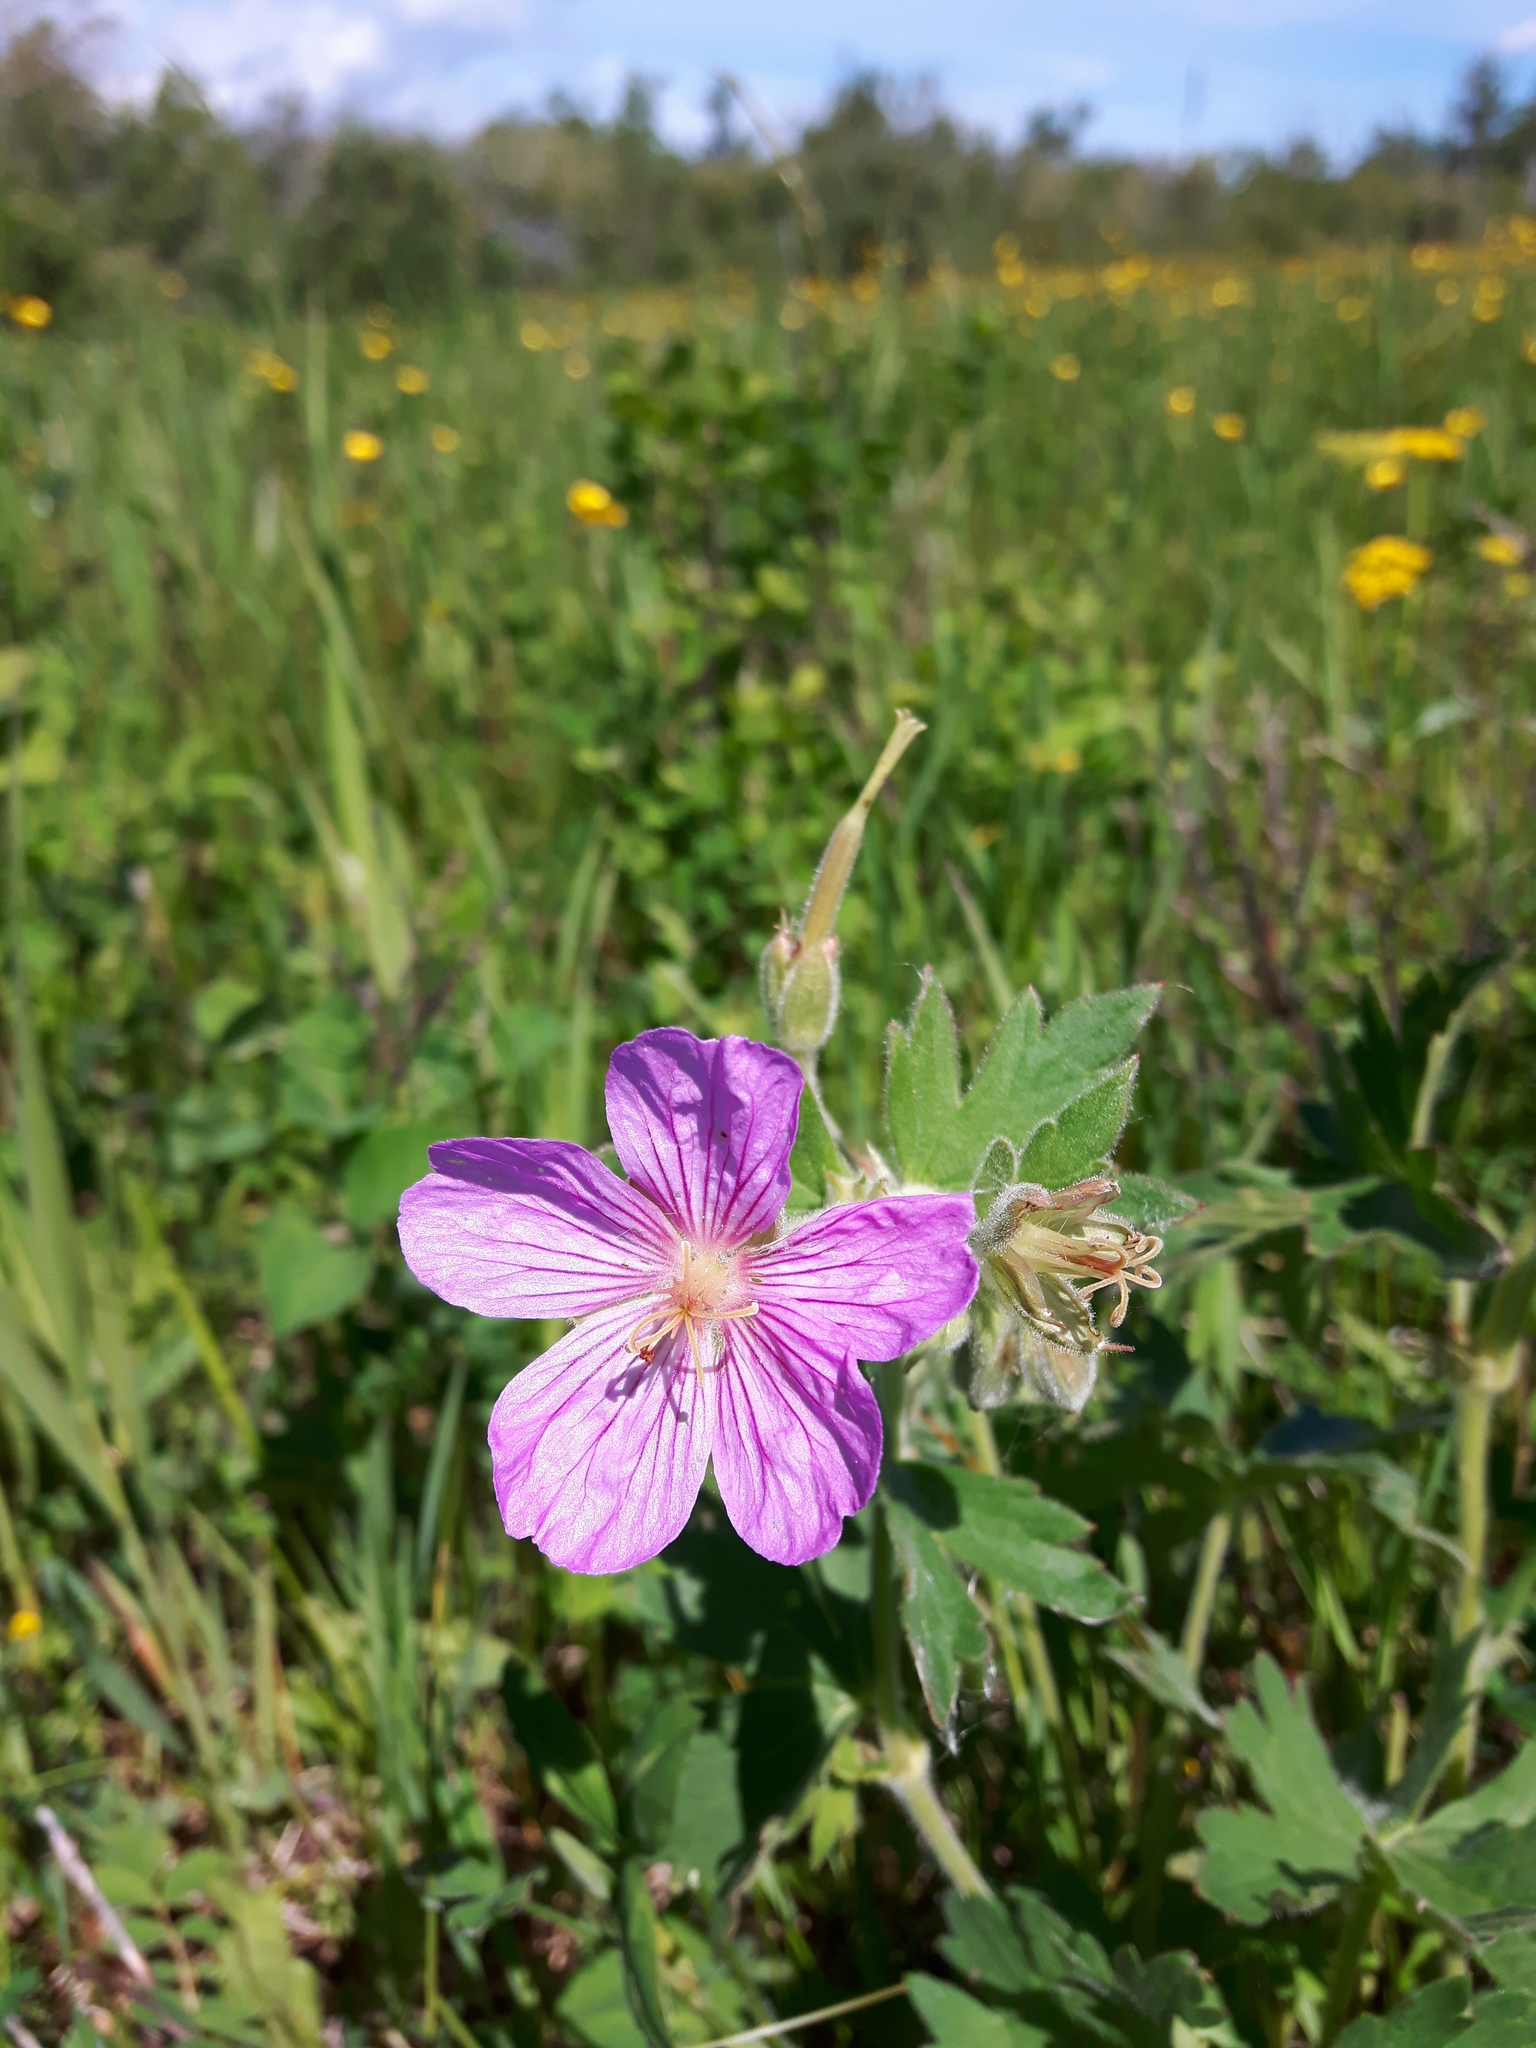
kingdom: Plantae
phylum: Tracheophyta
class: Magnoliopsida
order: Geraniales
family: Geraniaceae
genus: Geranium
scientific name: Geranium viscosissimum
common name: Purple geranium
